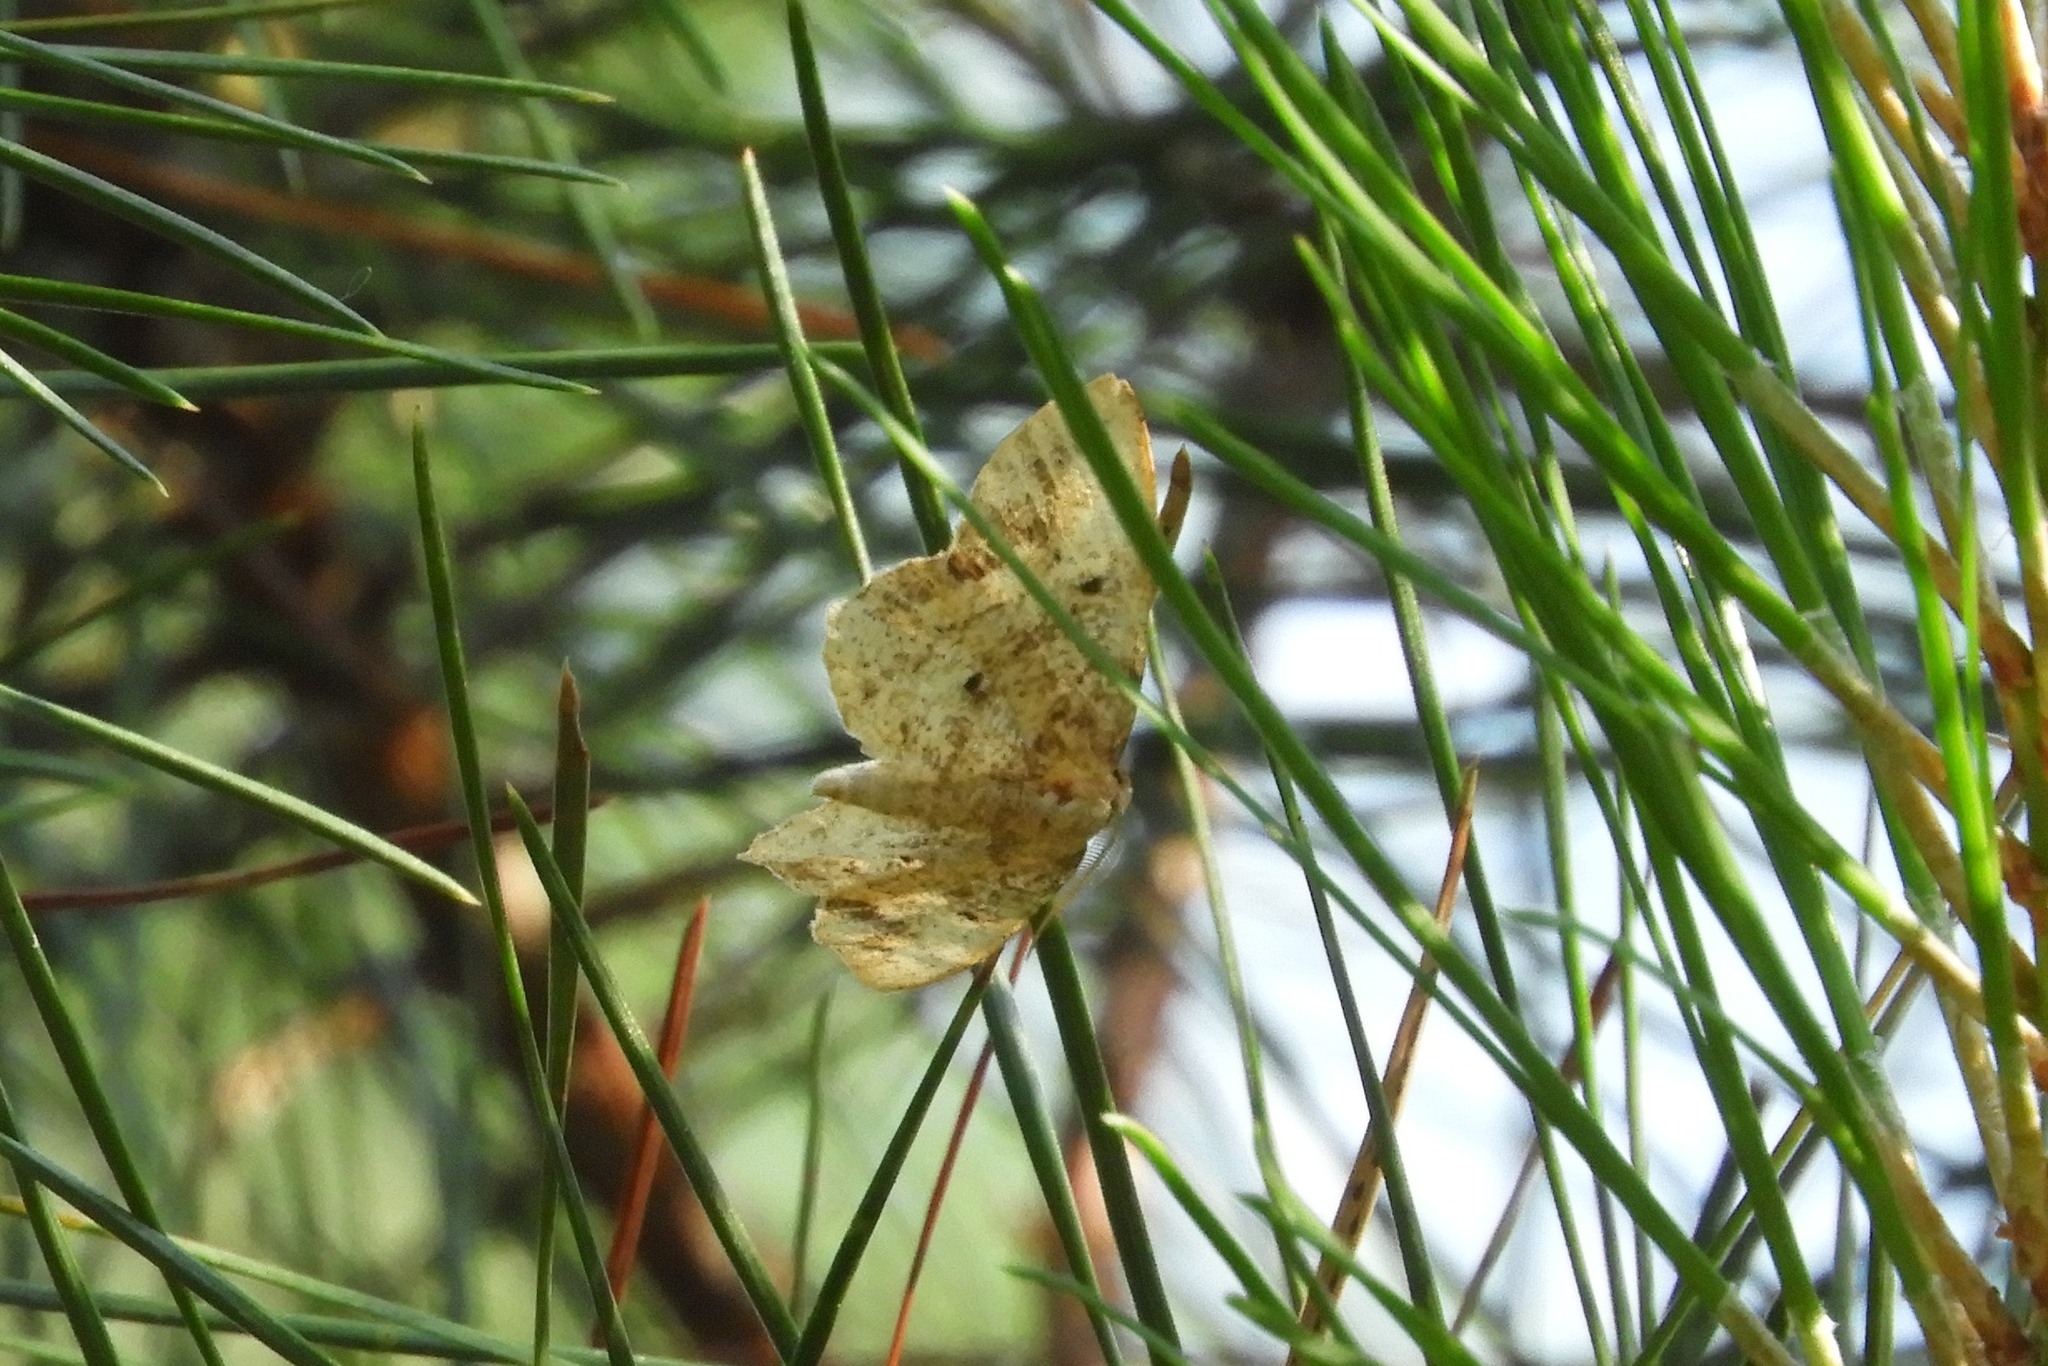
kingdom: Animalia
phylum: Arthropoda
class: Insecta
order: Lepidoptera
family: Geometridae
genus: Idaea
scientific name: Idaea
